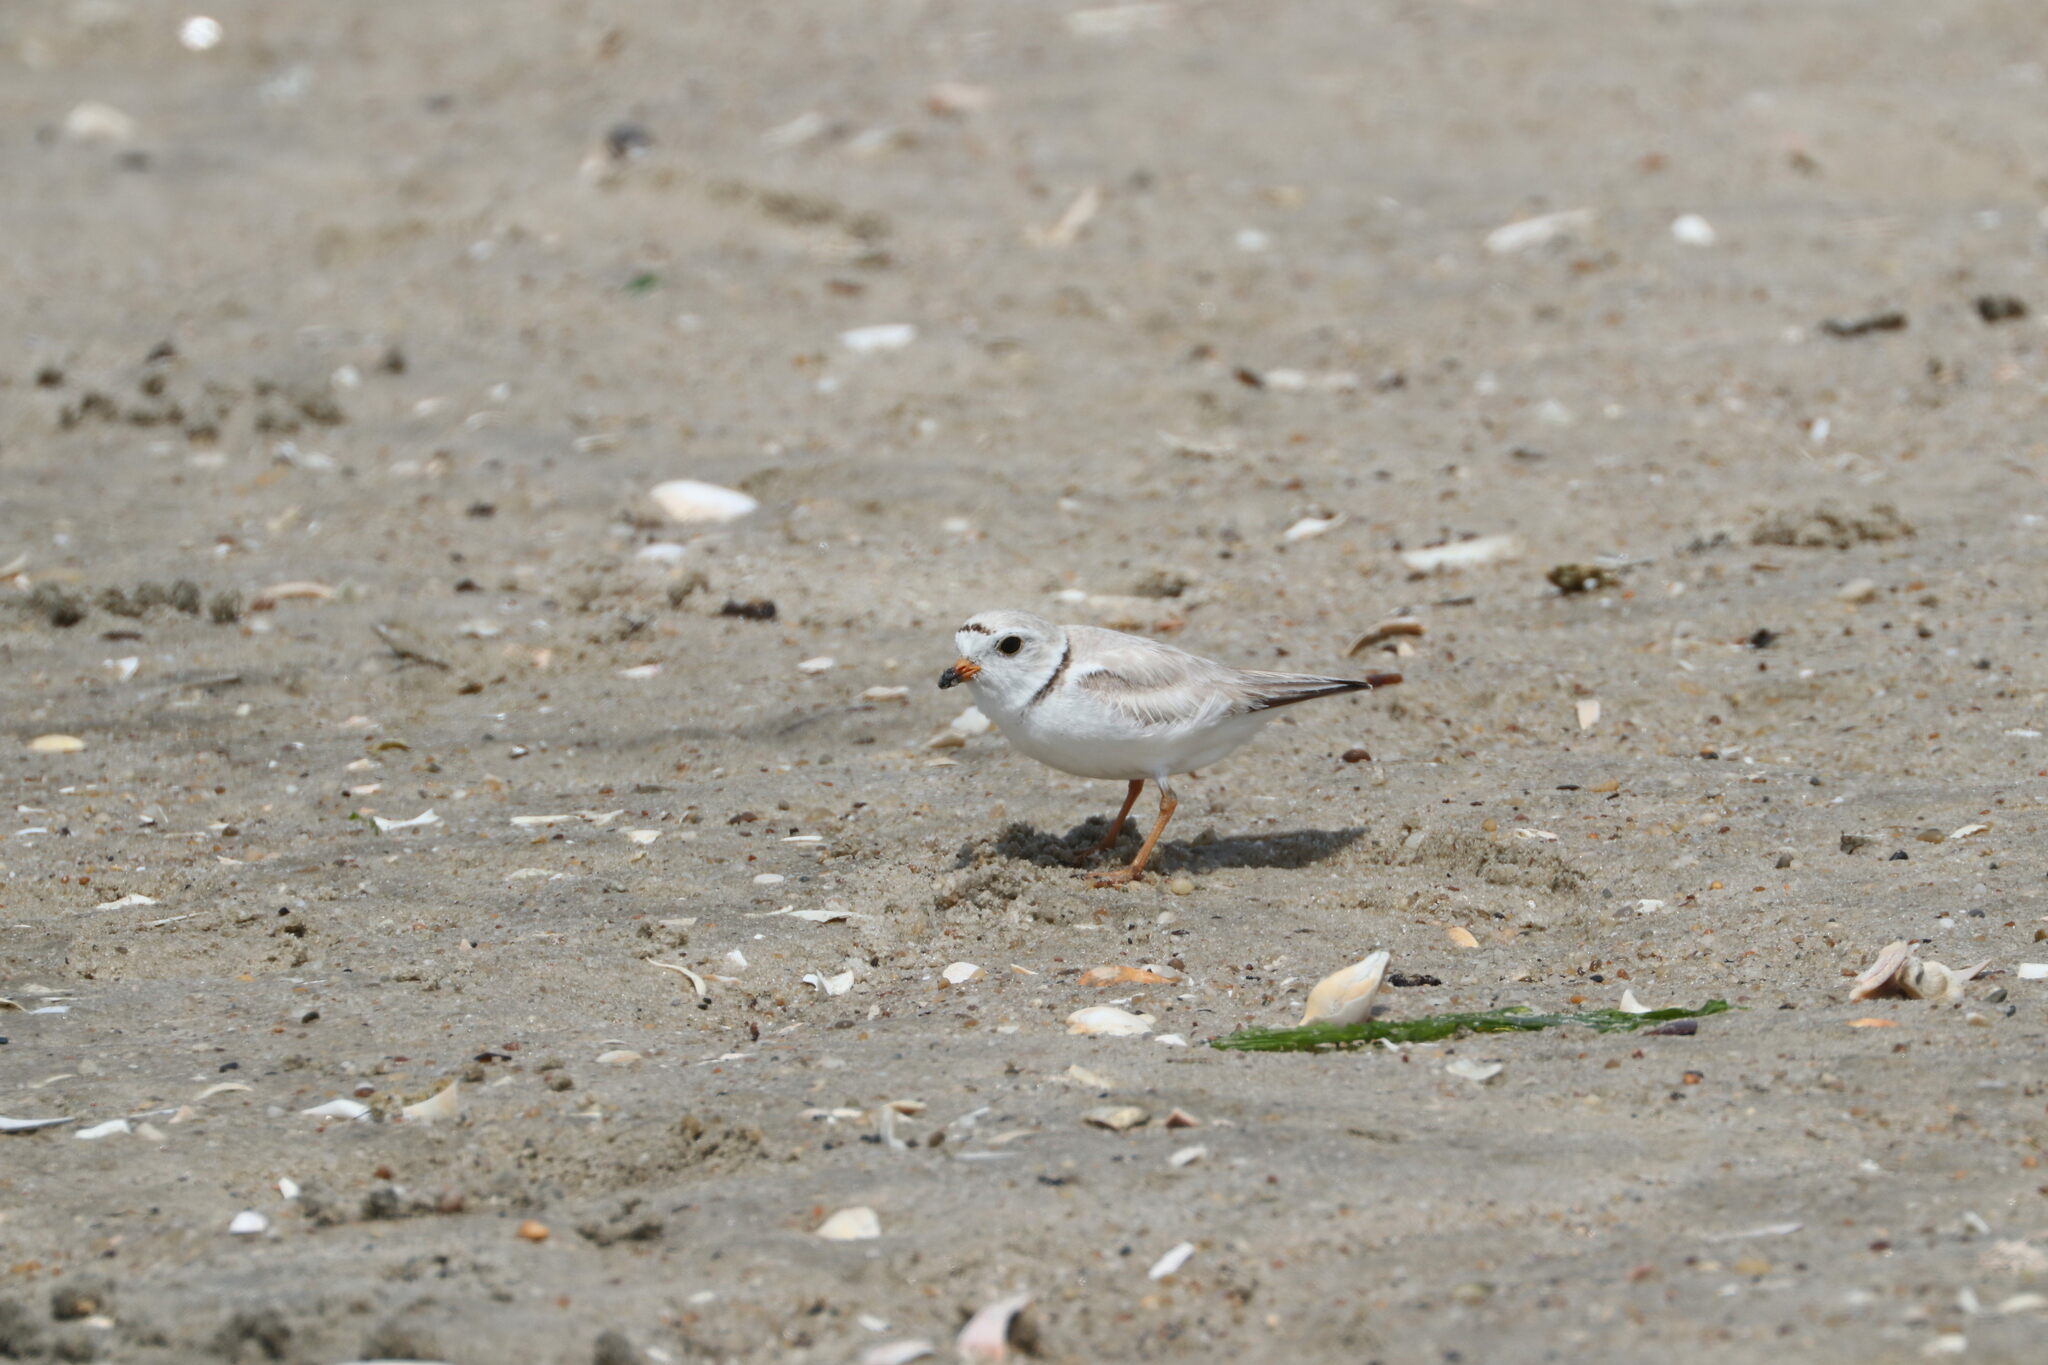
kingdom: Animalia
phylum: Chordata
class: Aves
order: Charadriiformes
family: Charadriidae
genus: Charadrius
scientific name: Charadrius melodus
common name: Piping plover
